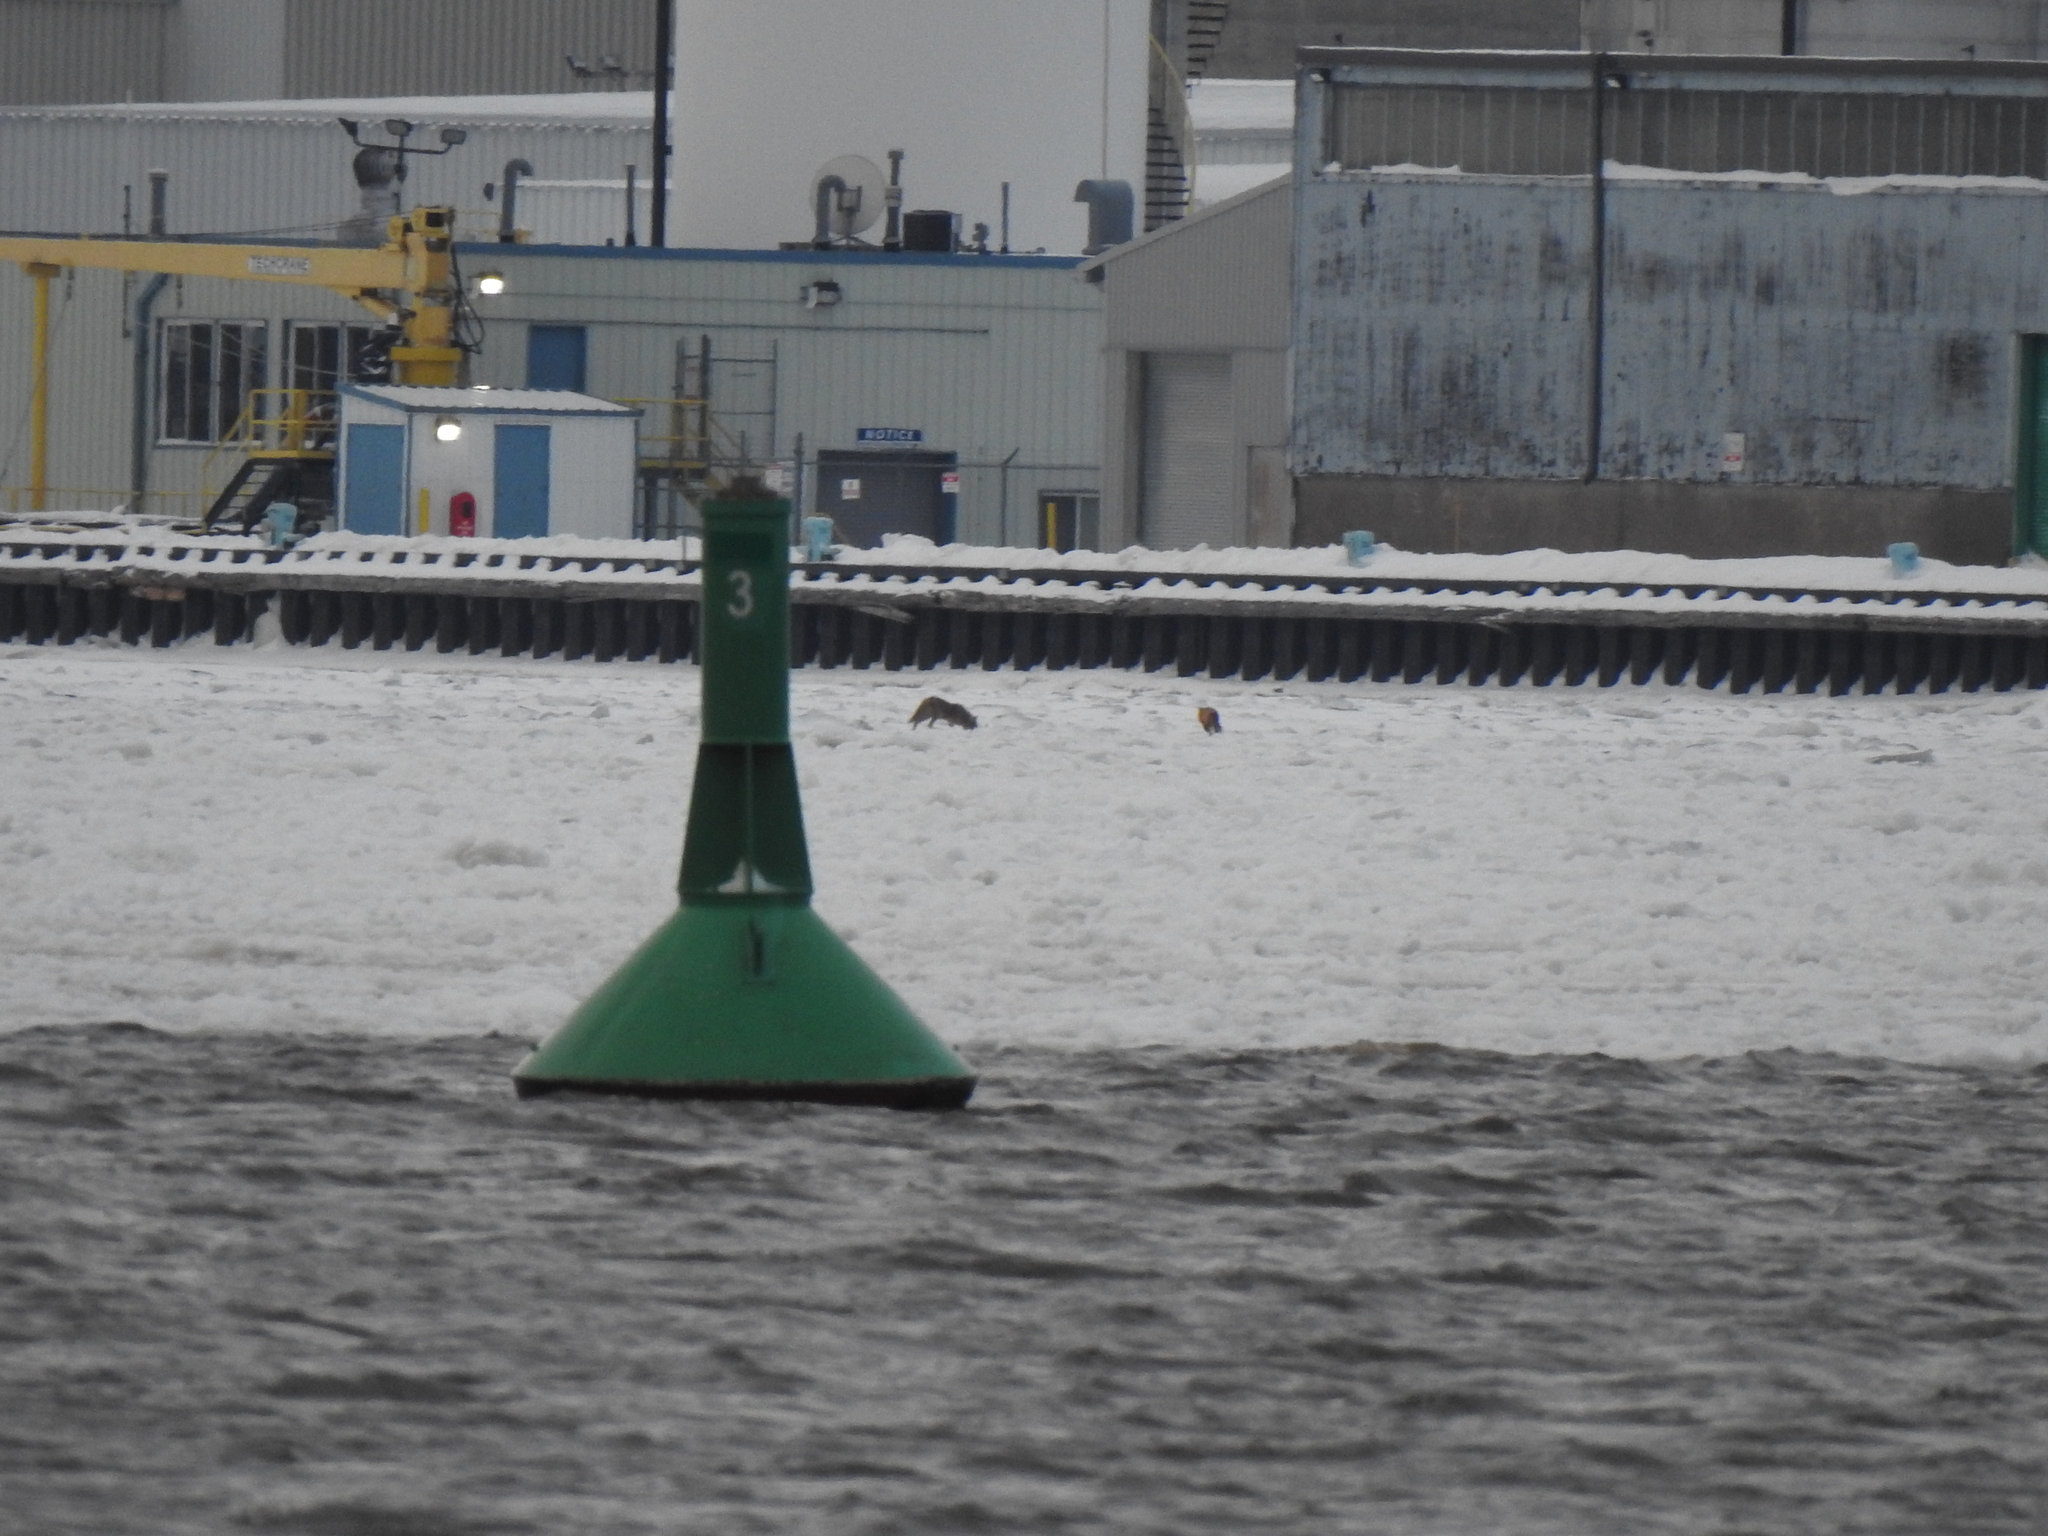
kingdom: Animalia
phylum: Chordata
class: Mammalia
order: Carnivora
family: Canidae
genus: Vulpes
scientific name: Vulpes vulpes
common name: Red fox
